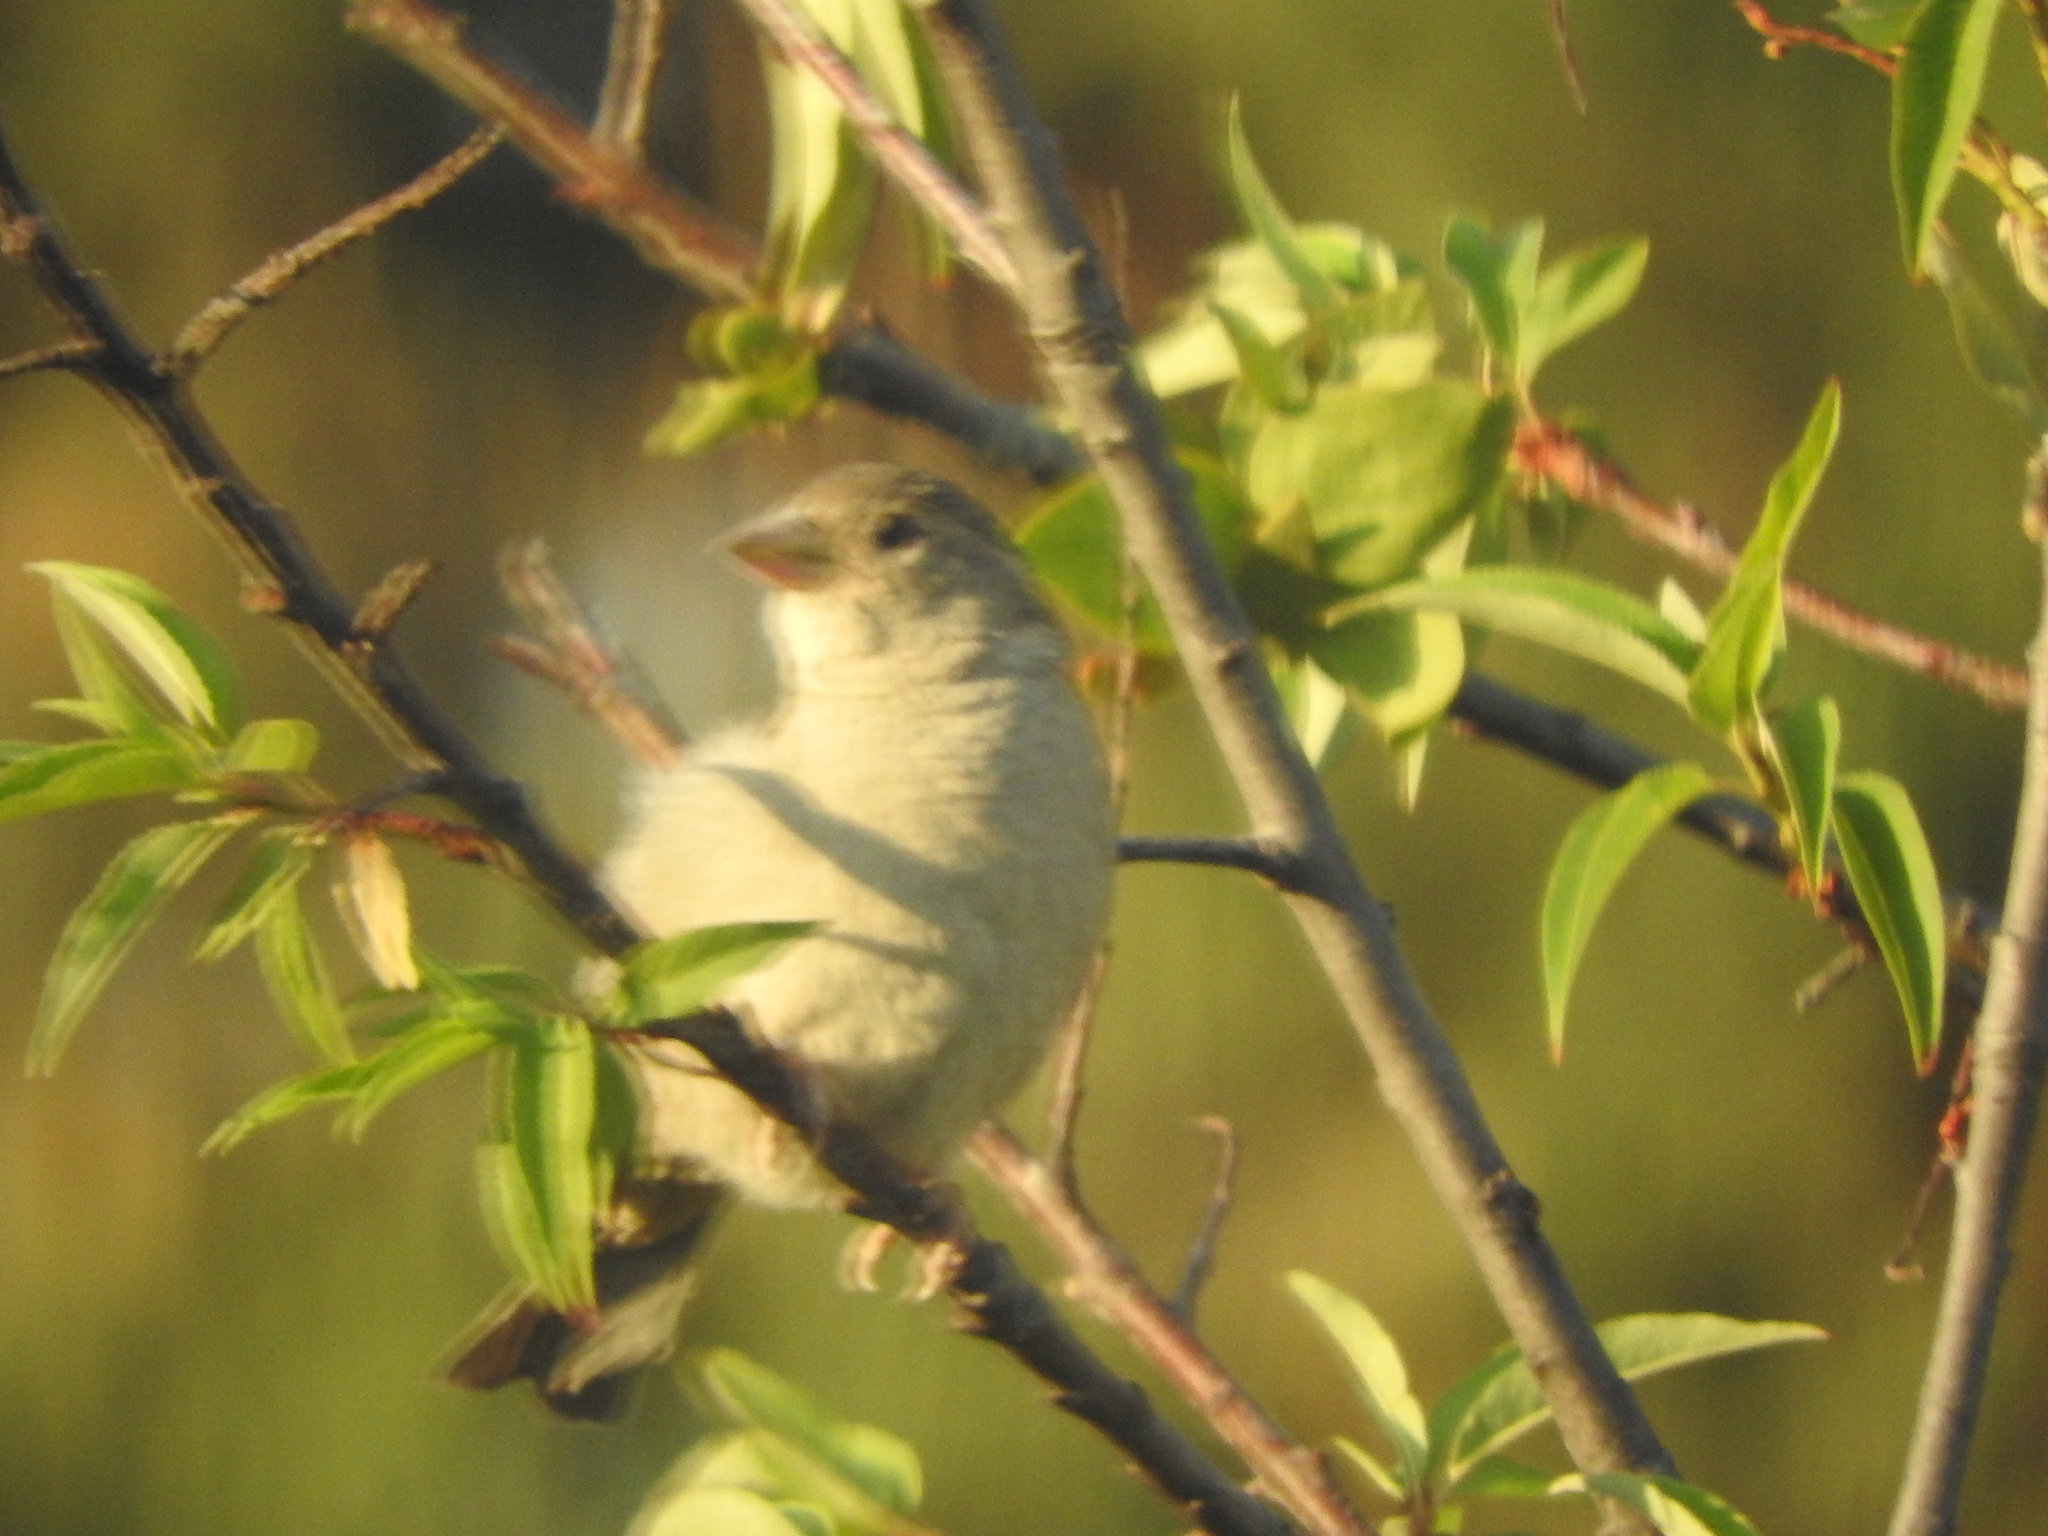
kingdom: Animalia
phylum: Chordata
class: Aves
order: Passeriformes
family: Passeridae
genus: Passer
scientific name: Passer domesticus
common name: House sparrow
